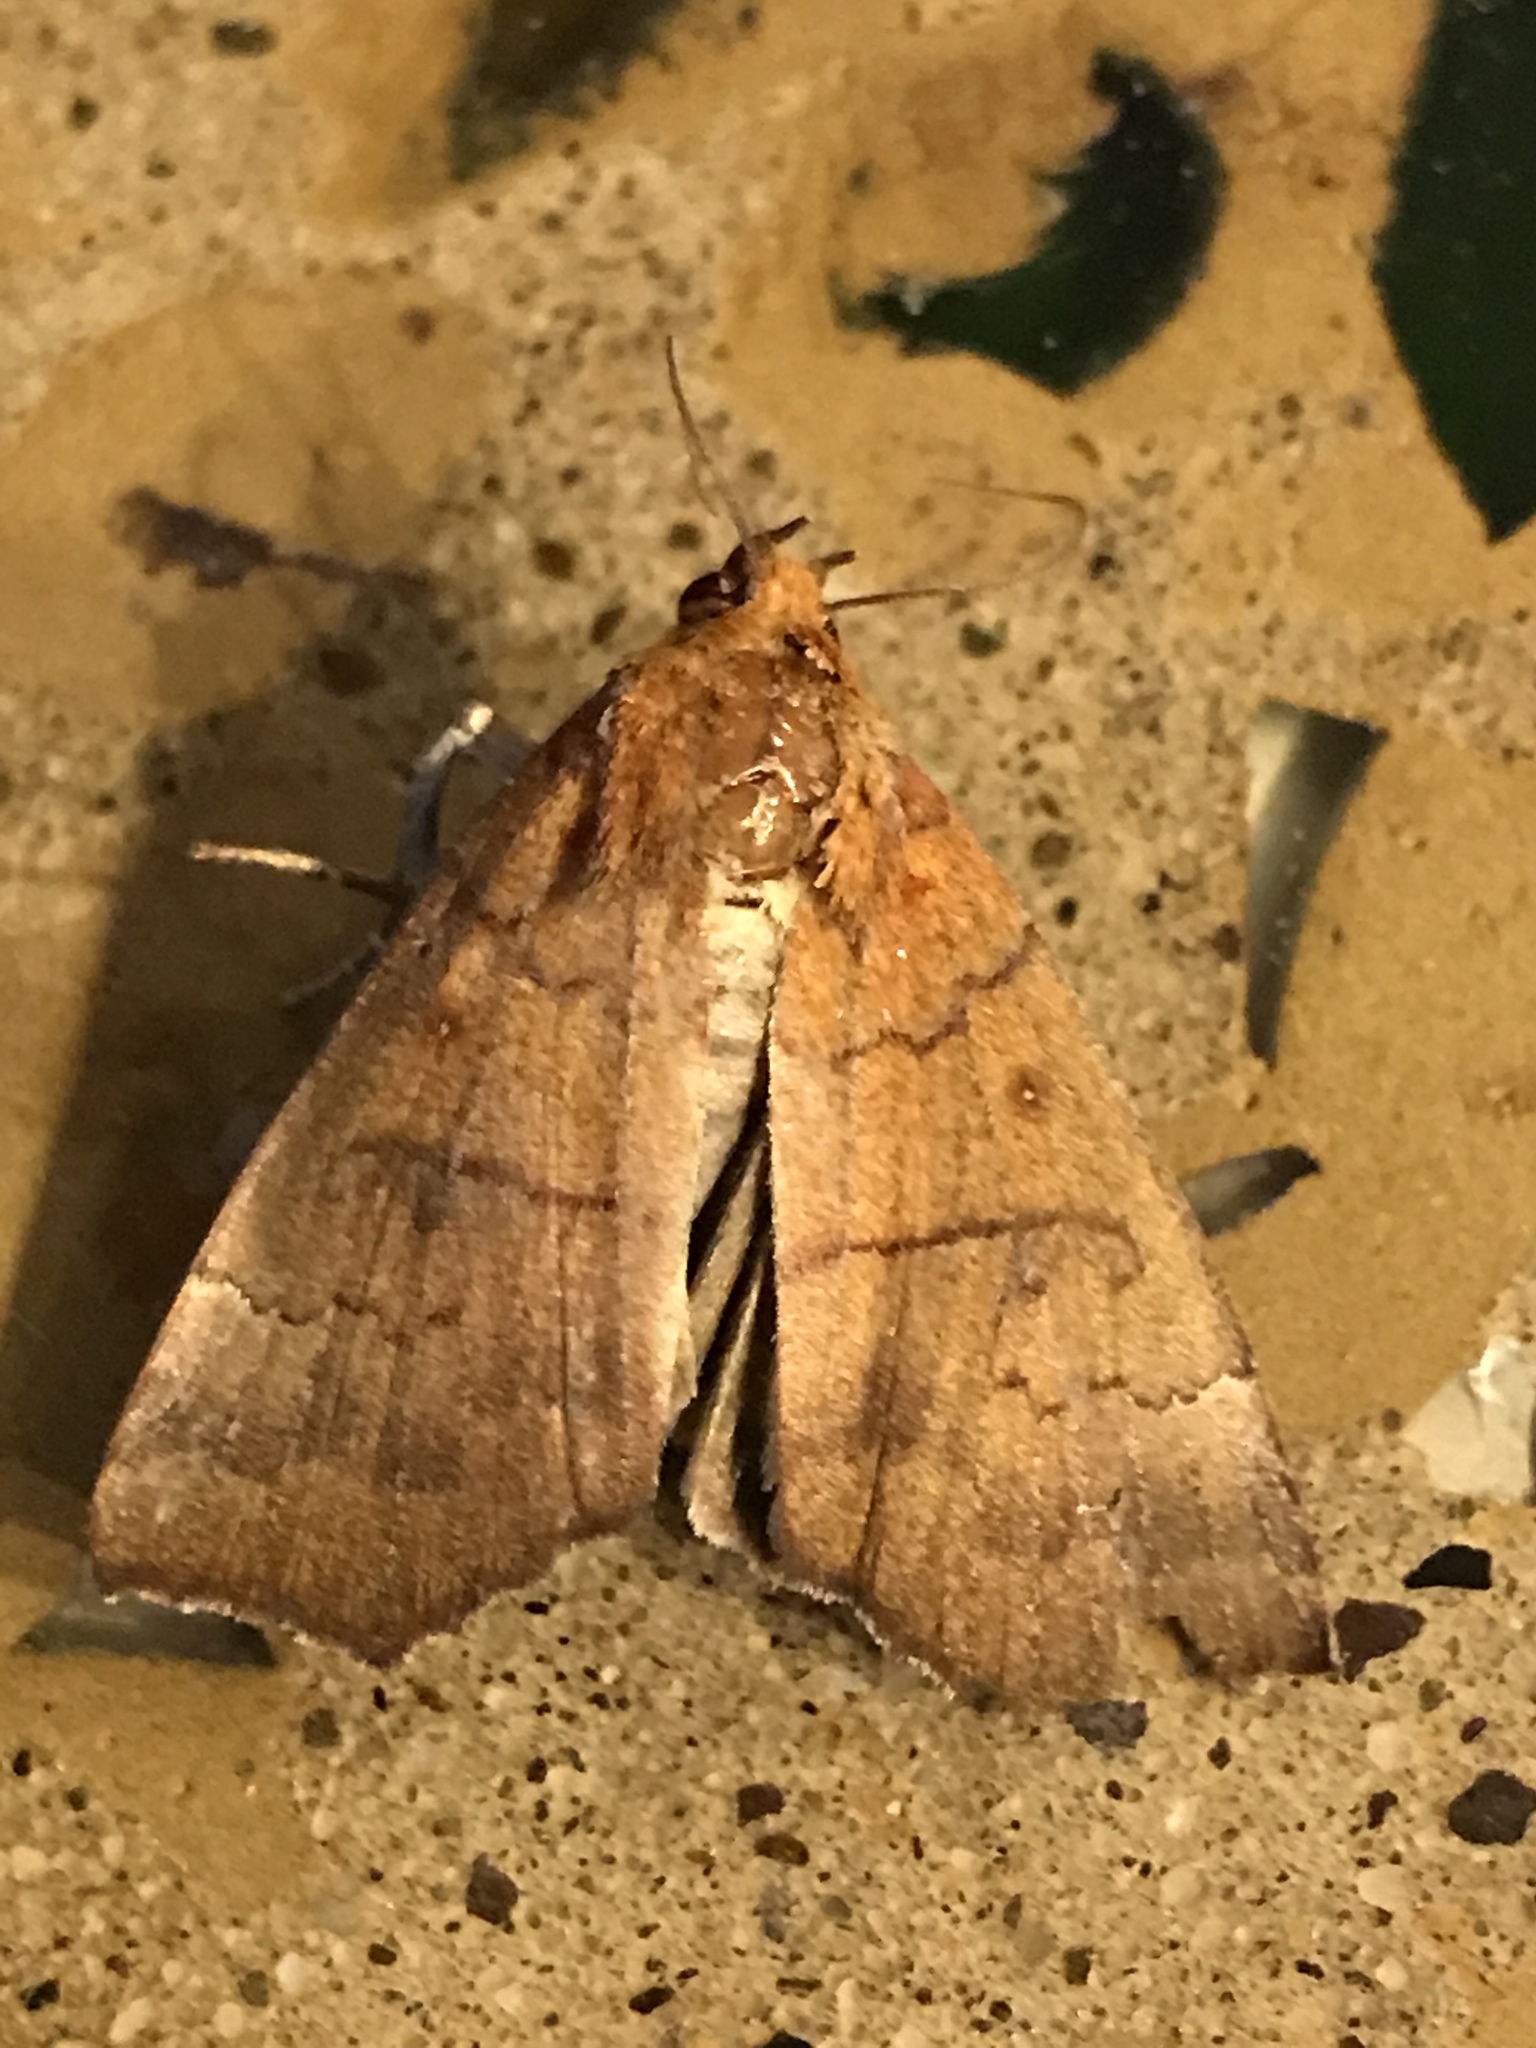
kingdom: Animalia
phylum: Arthropoda
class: Insecta
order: Lepidoptera
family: Erebidae
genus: Rusicada
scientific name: Rusicada privata
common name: Hibiscus leaf caterpillar moth
